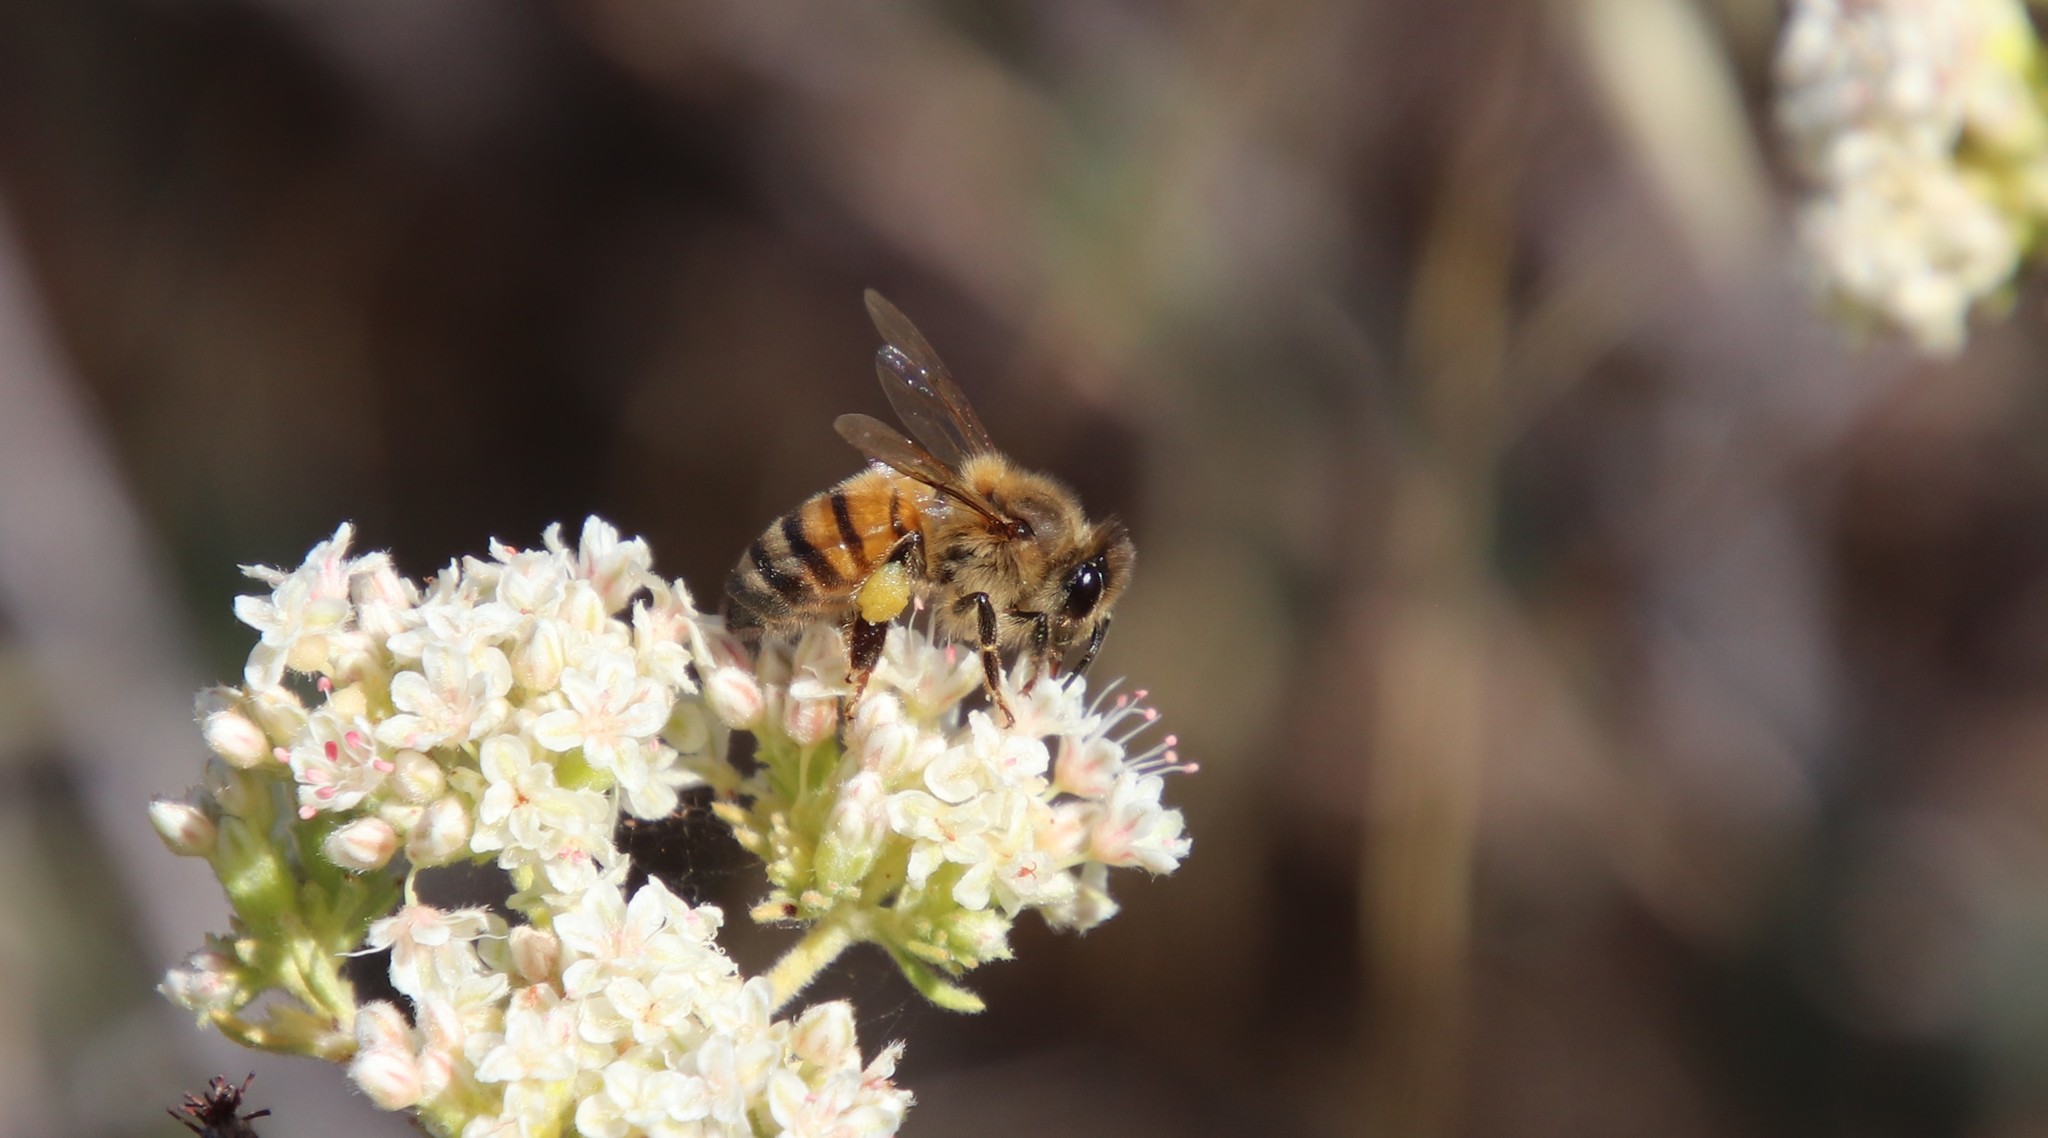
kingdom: Animalia
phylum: Arthropoda
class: Insecta
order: Hymenoptera
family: Apidae
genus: Apis
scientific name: Apis mellifera
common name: Honey bee
